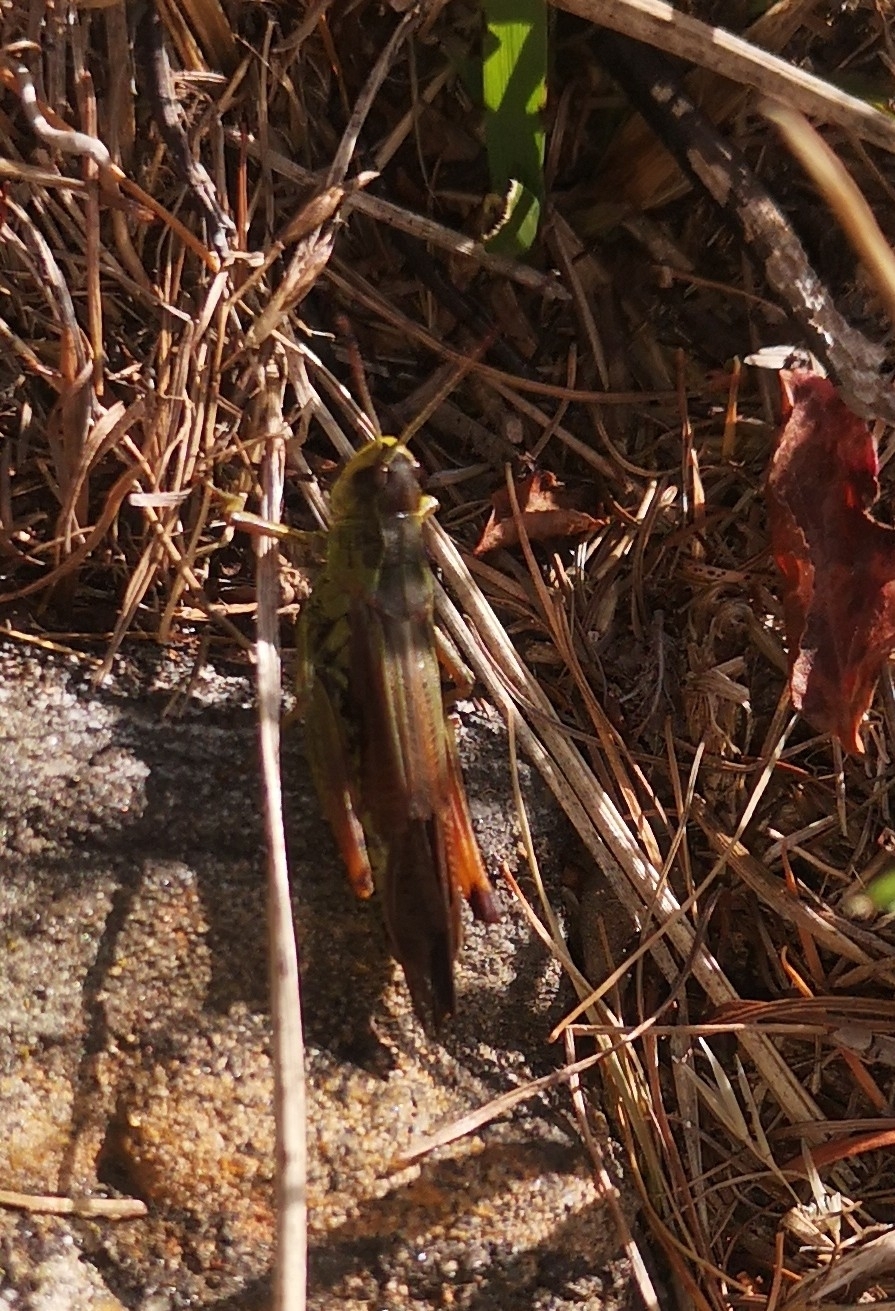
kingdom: Animalia
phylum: Arthropoda
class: Insecta
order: Orthoptera
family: Acrididae
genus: Stauroderus
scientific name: Stauroderus scalaris
